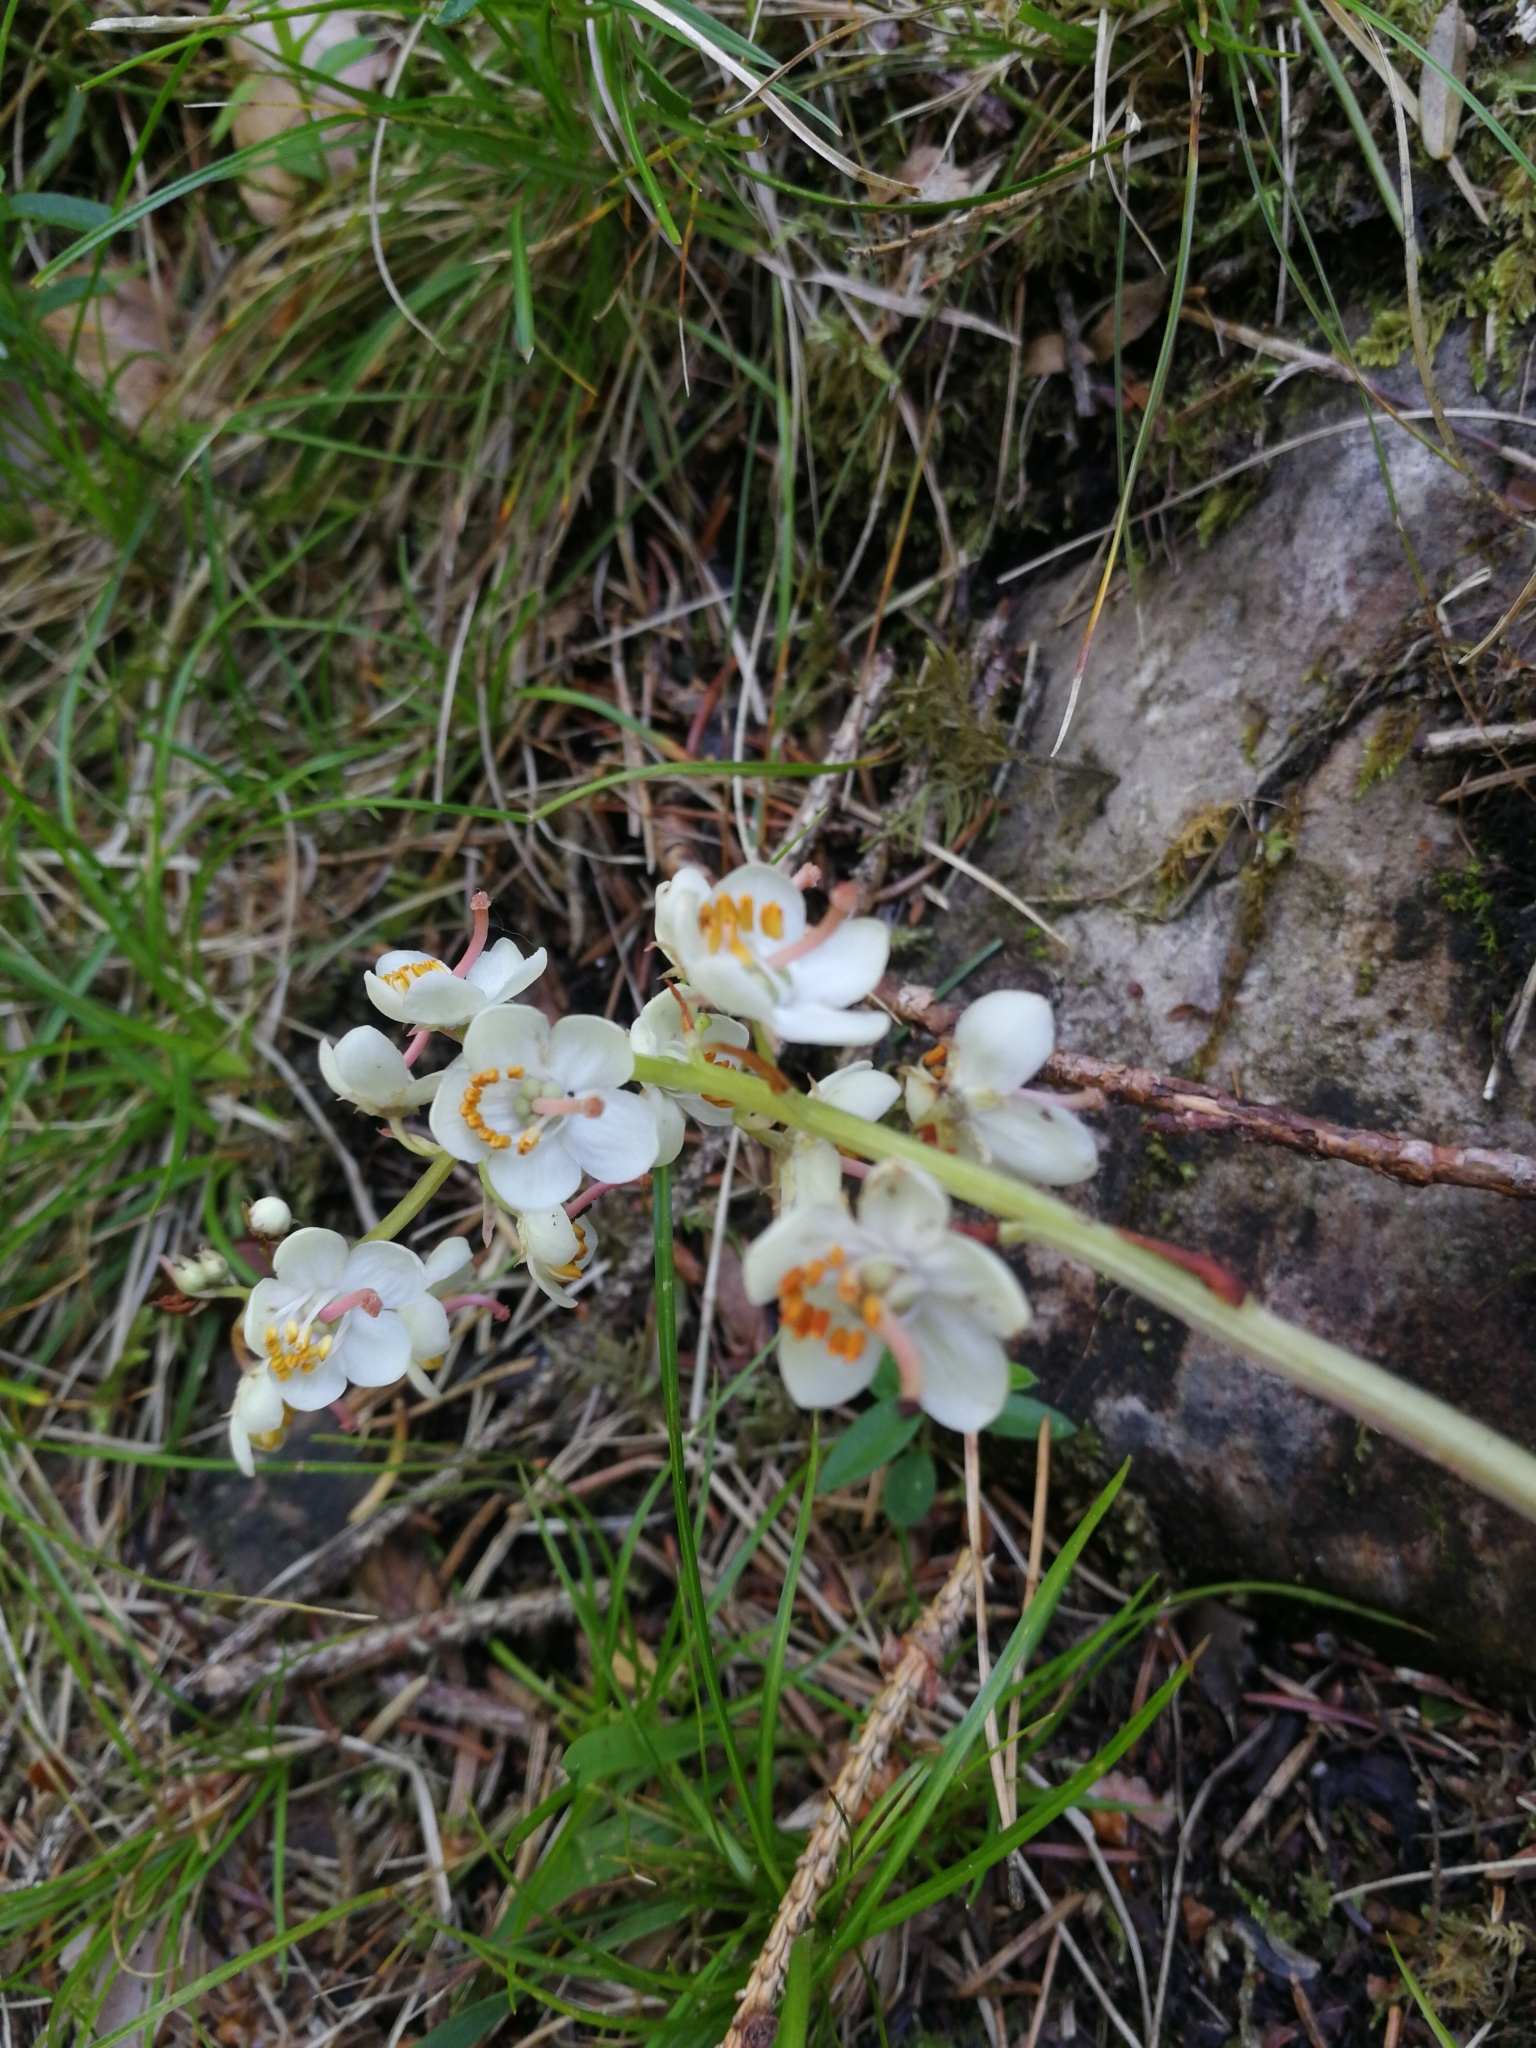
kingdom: Plantae
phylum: Tracheophyta
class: Magnoliopsida
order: Ericales
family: Ericaceae
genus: Pyrola
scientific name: Pyrola rotundifolia
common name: Round-leaved wintergreen
